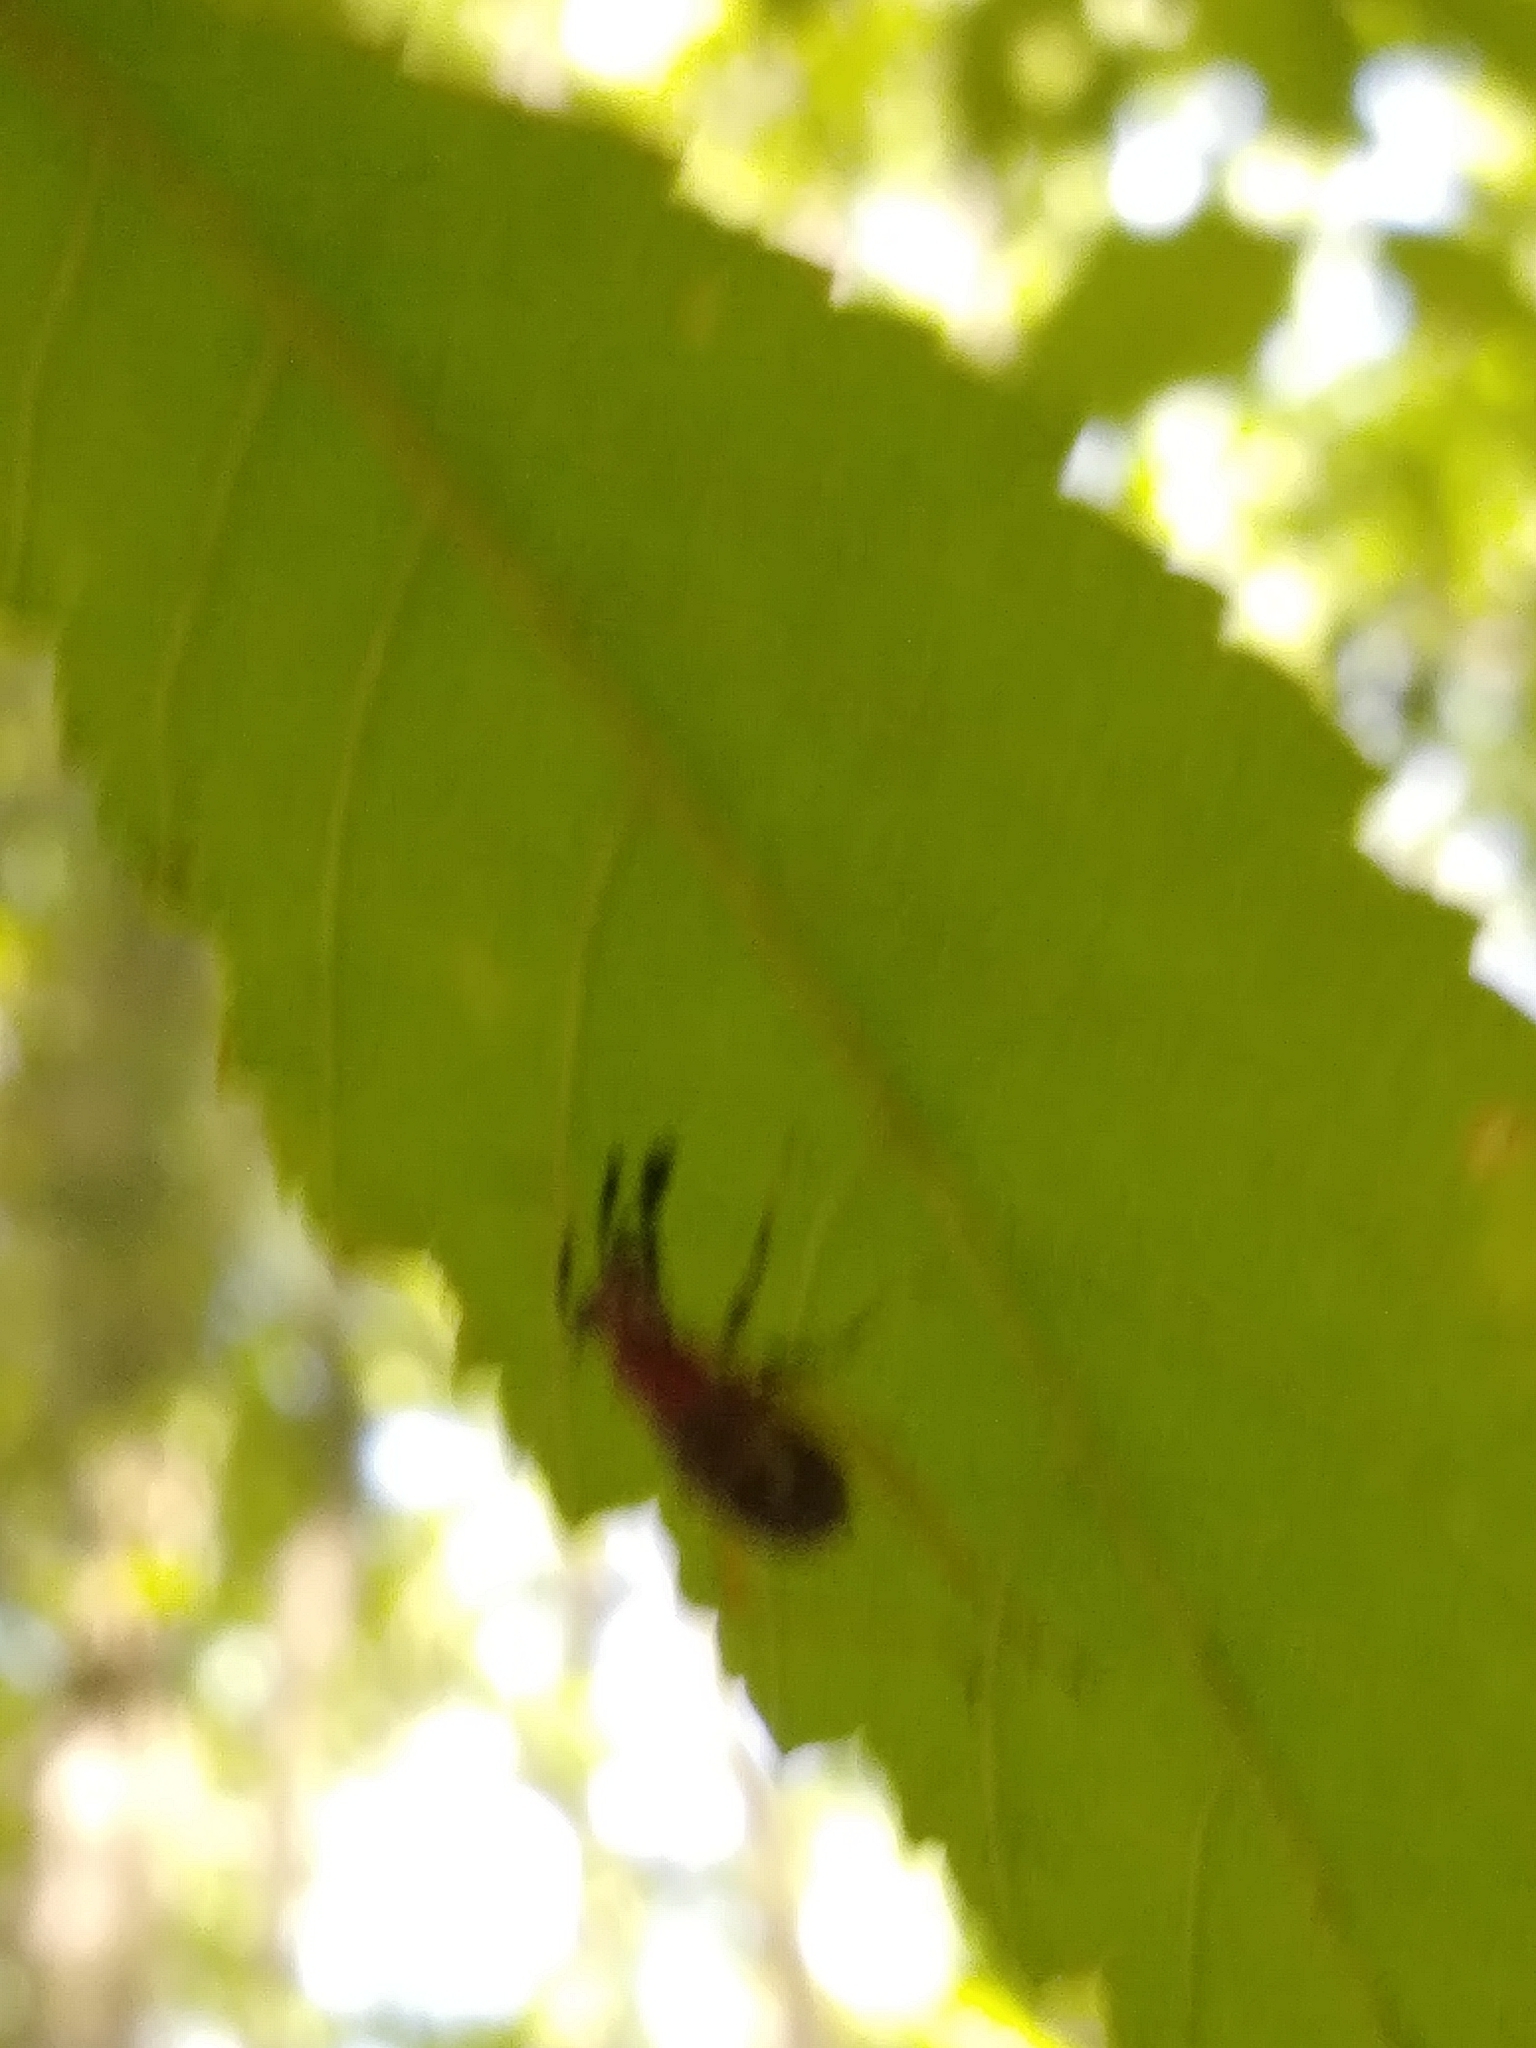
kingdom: Animalia
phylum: Arthropoda
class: Insecta
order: Orthoptera
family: Trigonidiidae
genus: Phyllopalpus
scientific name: Phyllopalpus pulchellus
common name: Handsome trig
